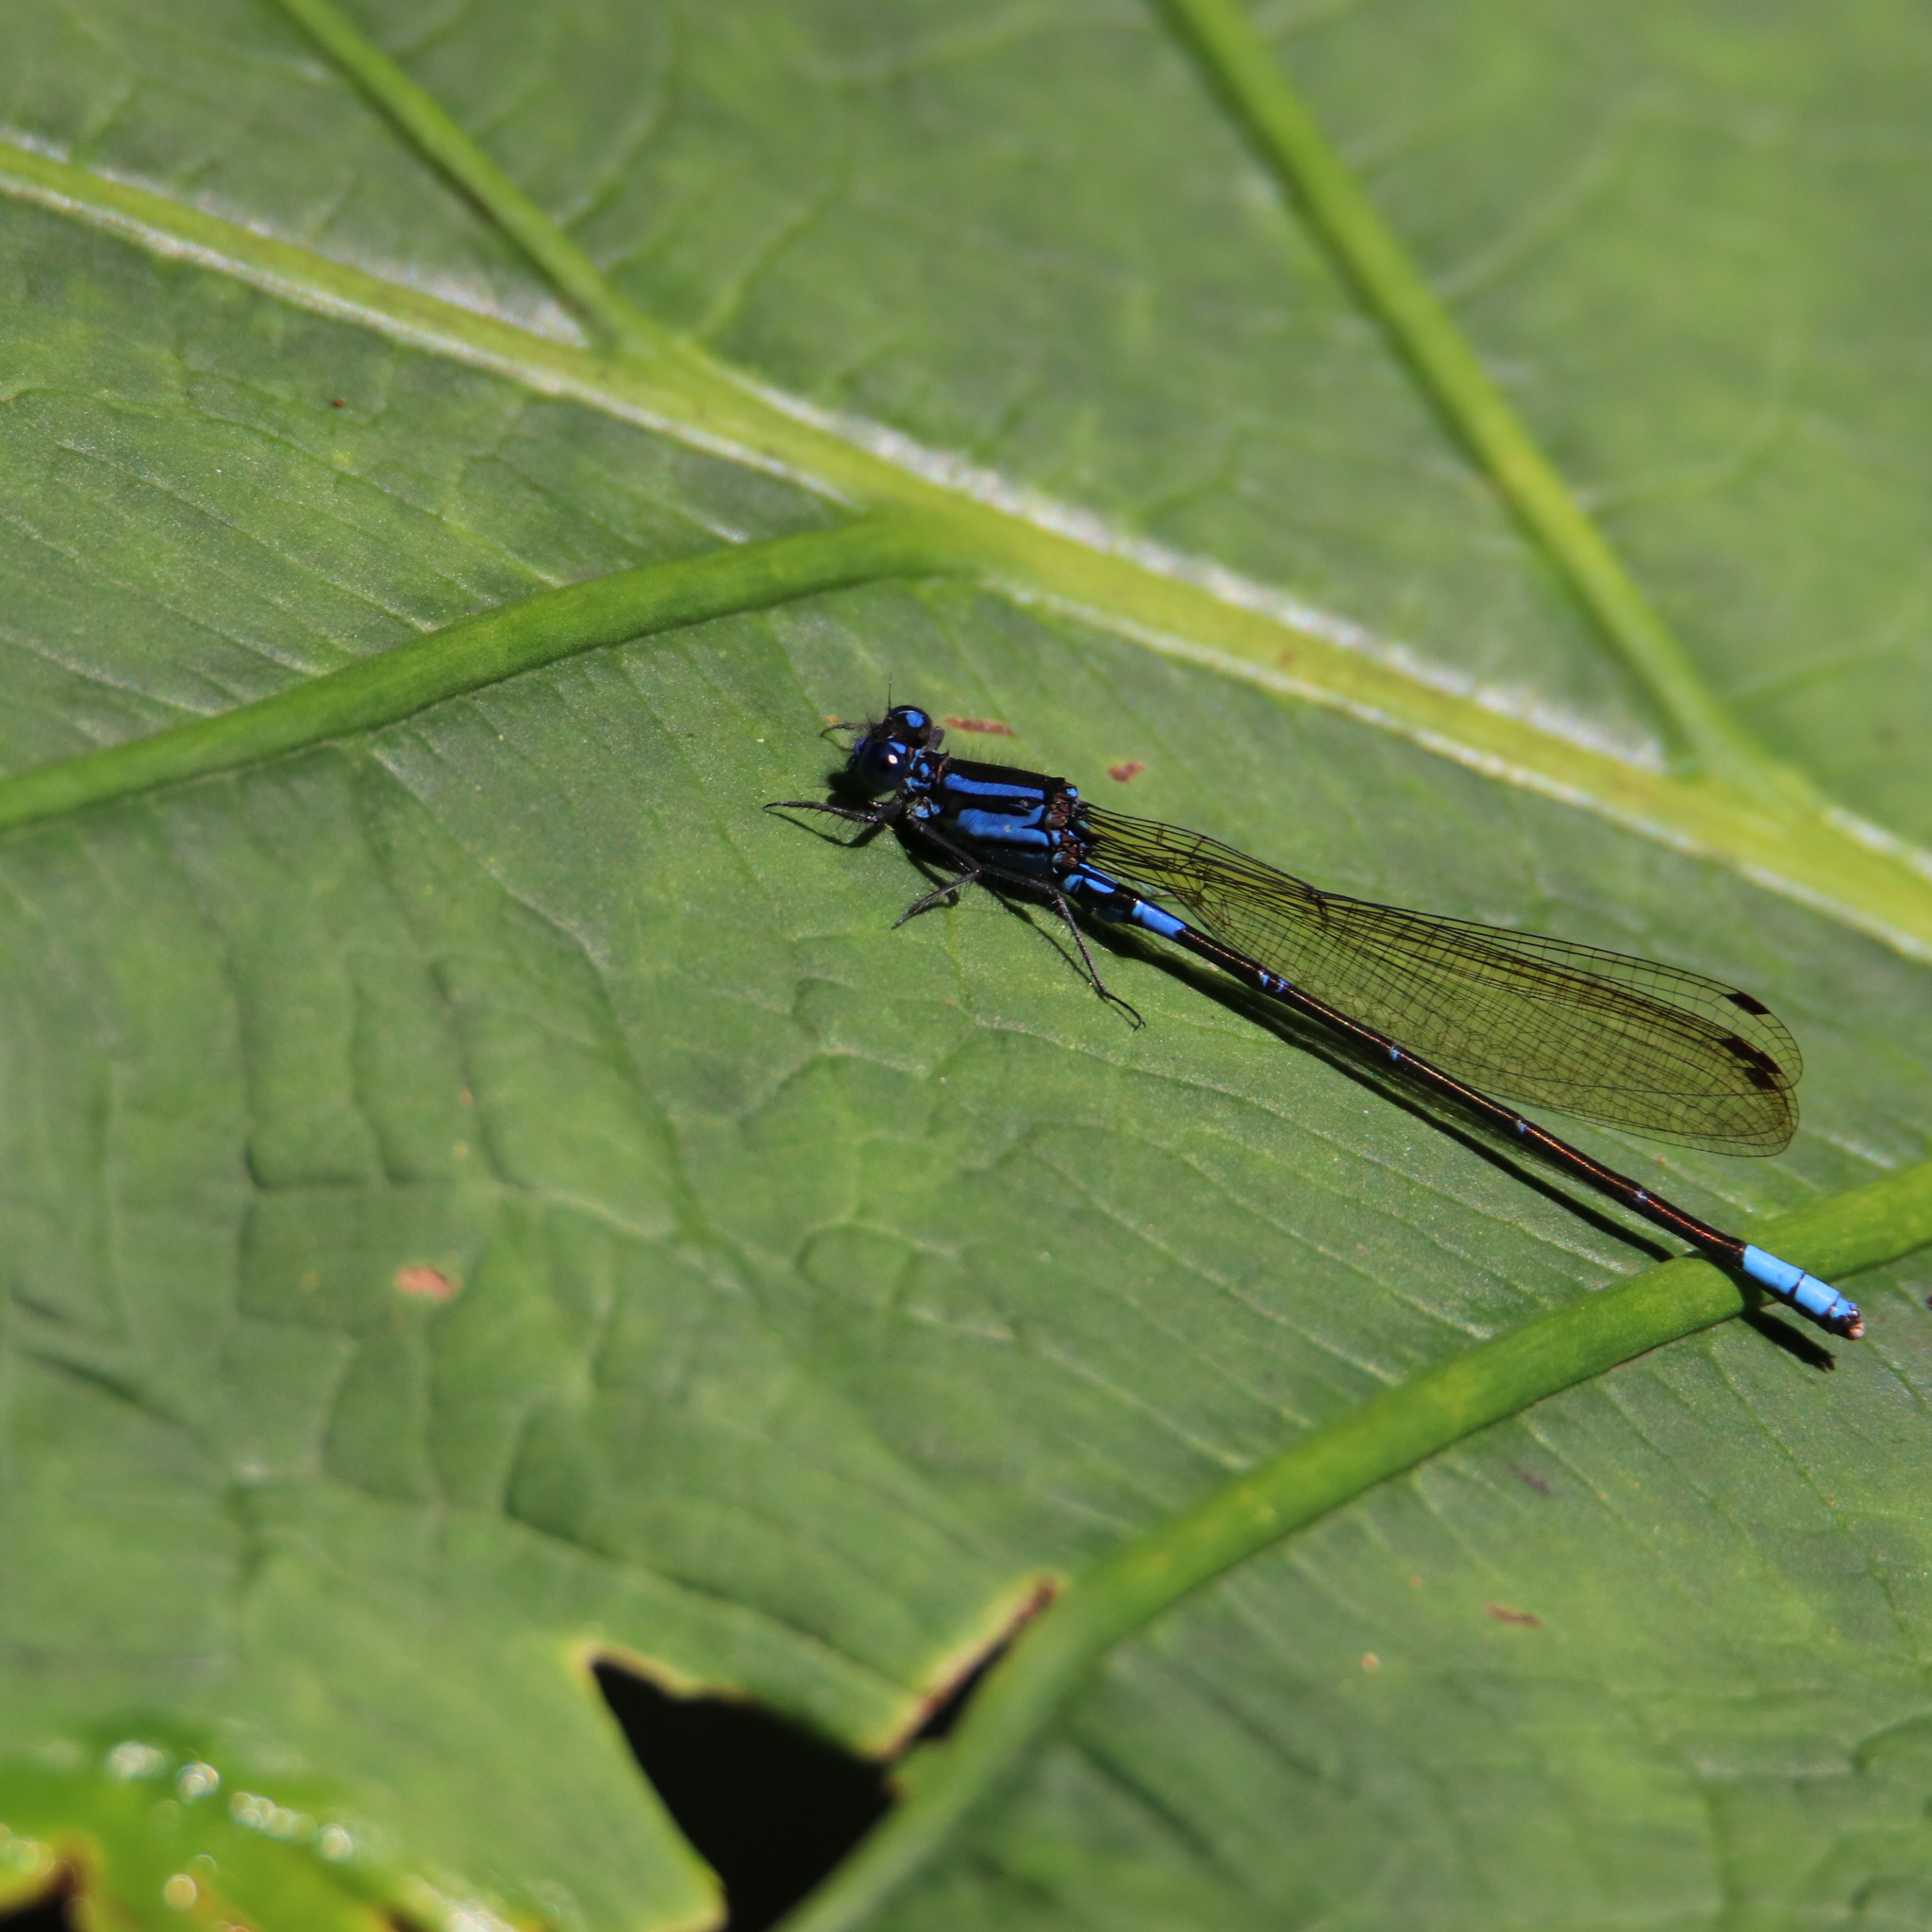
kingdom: Animalia
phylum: Arthropoda
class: Insecta
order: Odonata
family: Coenagrionidae
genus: Argia
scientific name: Argia oculata
